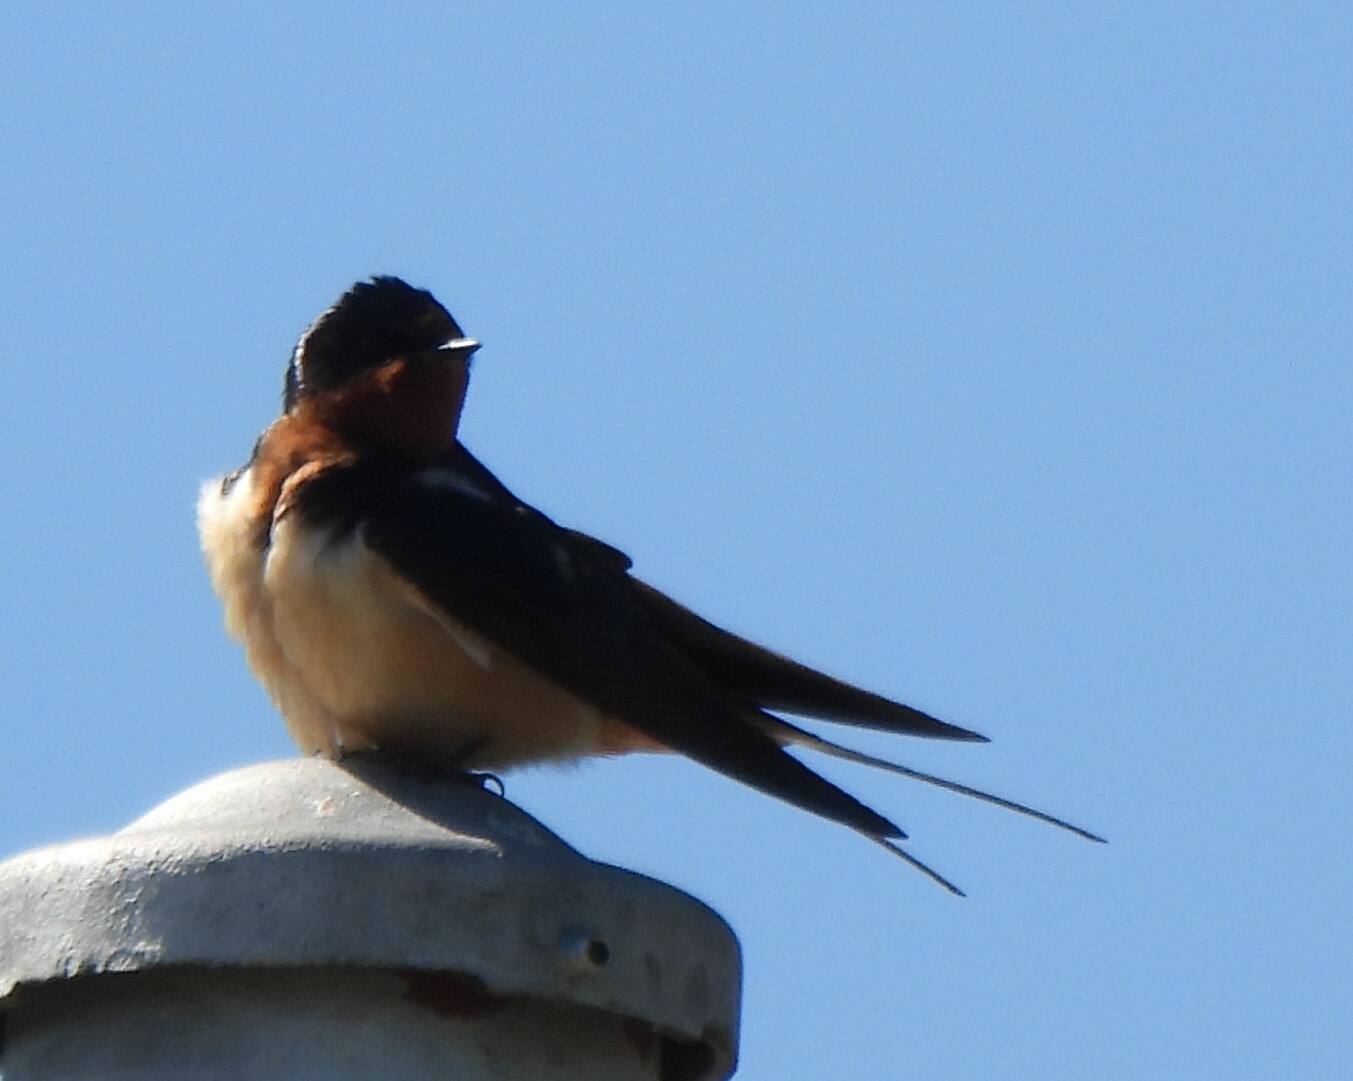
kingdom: Animalia
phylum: Chordata
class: Aves
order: Passeriformes
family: Hirundinidae
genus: Hirundo
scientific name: Hirundo rustica
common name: Barn swallow
